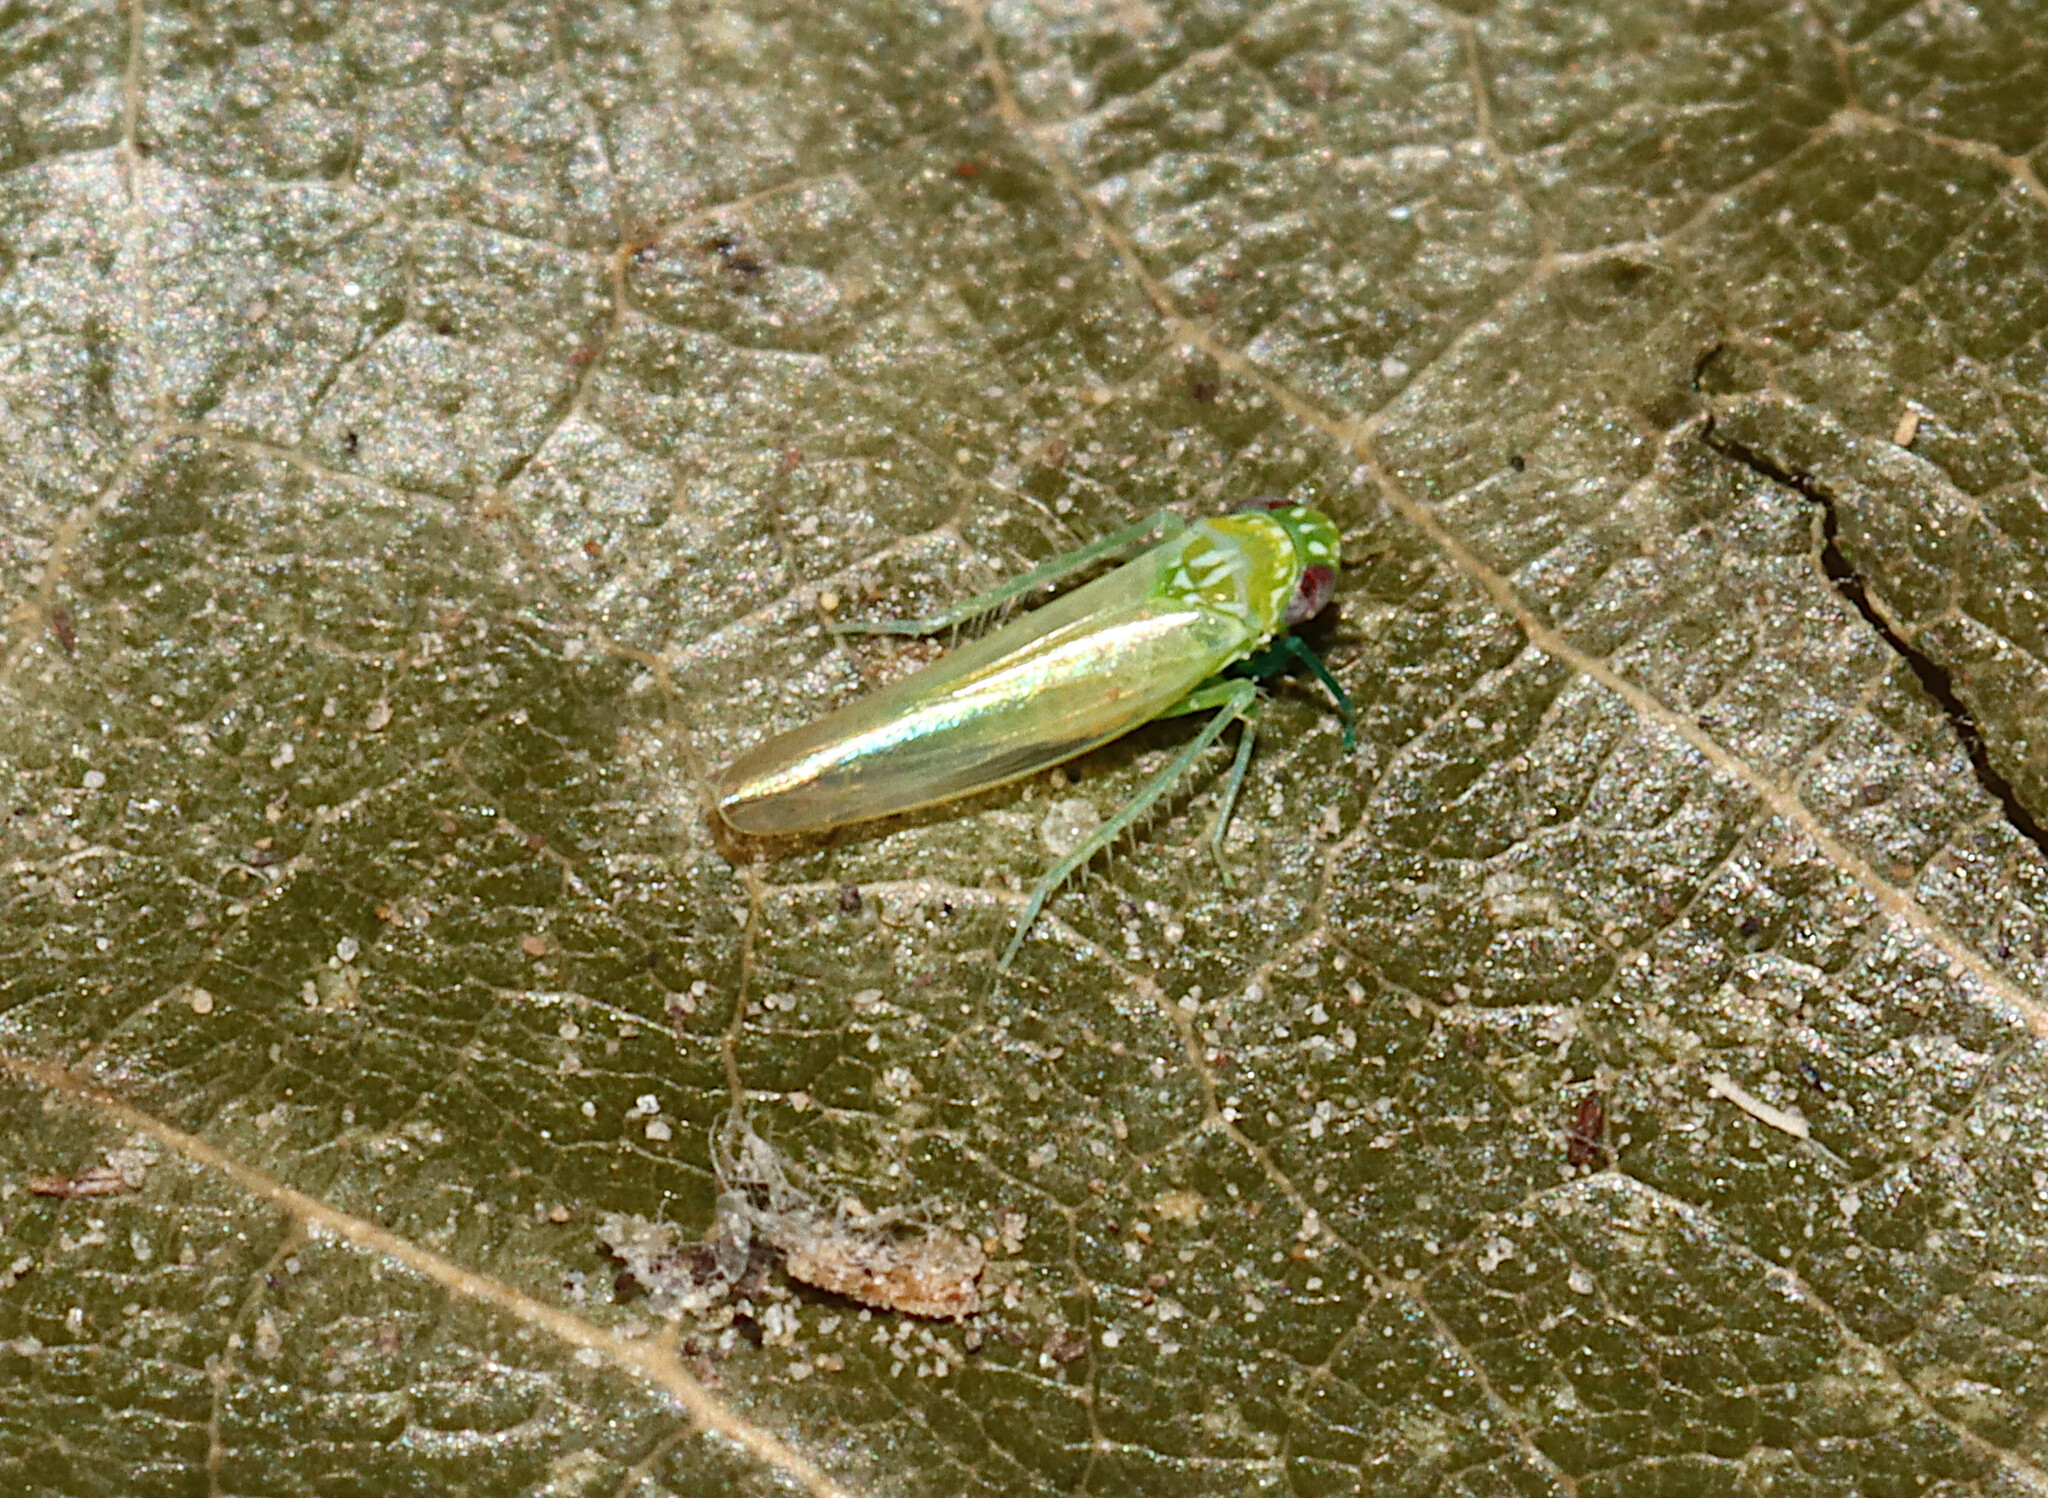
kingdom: Animalia
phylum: Arthropoda
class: Insecta
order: Hemiptera
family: Cicadellidae
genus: Empoasca
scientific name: Empoasca fabae
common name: Potato leafhopper
